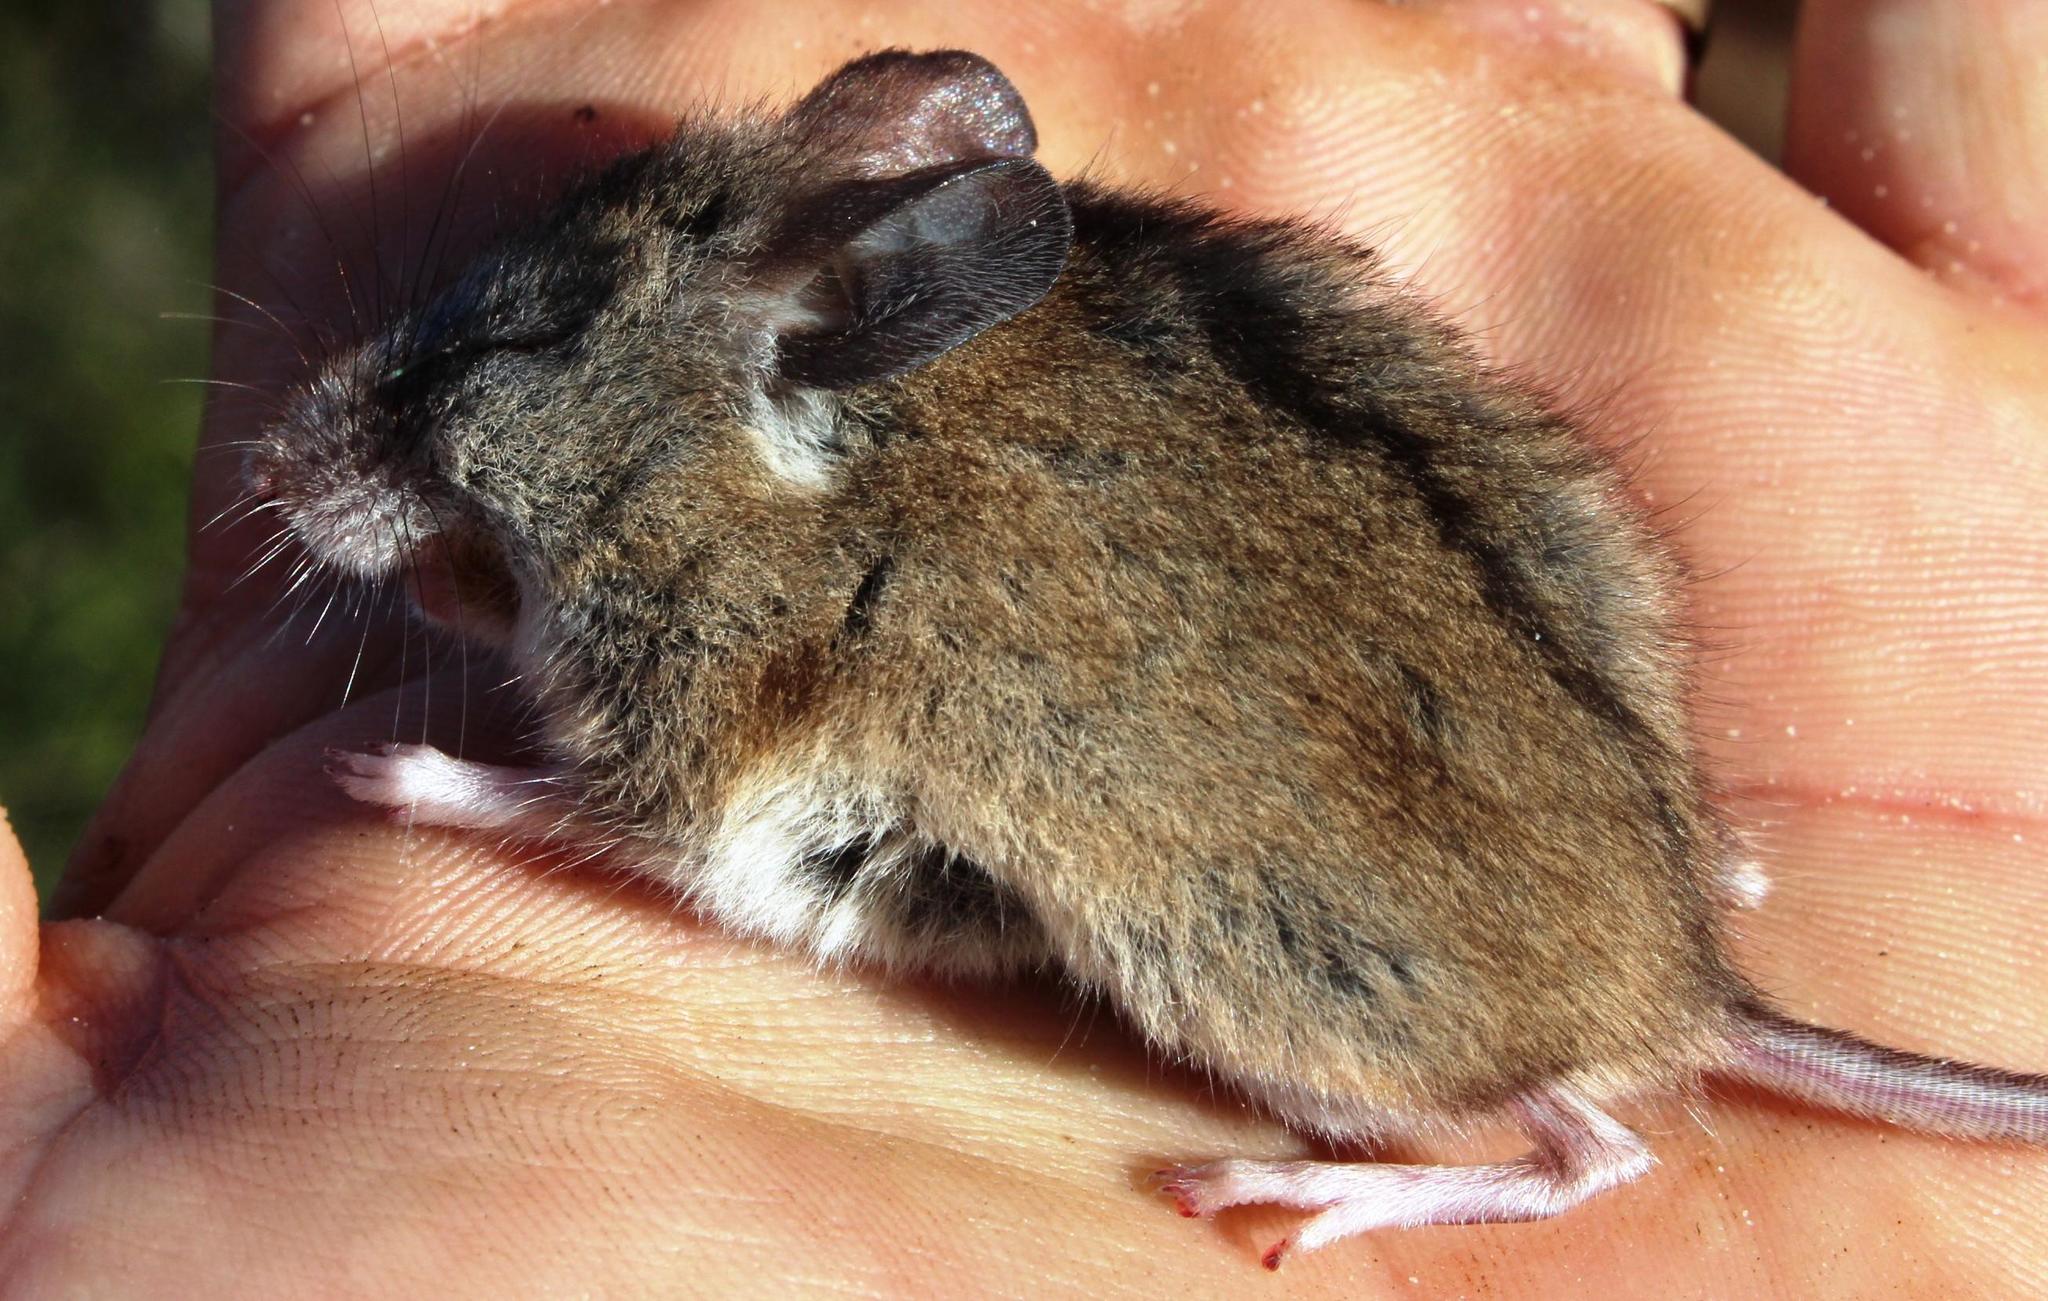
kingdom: Animalia
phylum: Chordata
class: Mammalia
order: Rodentia
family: Nesomyidae
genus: Dendromus
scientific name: Dendromus mesomelas
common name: Brant's climbing mouse
